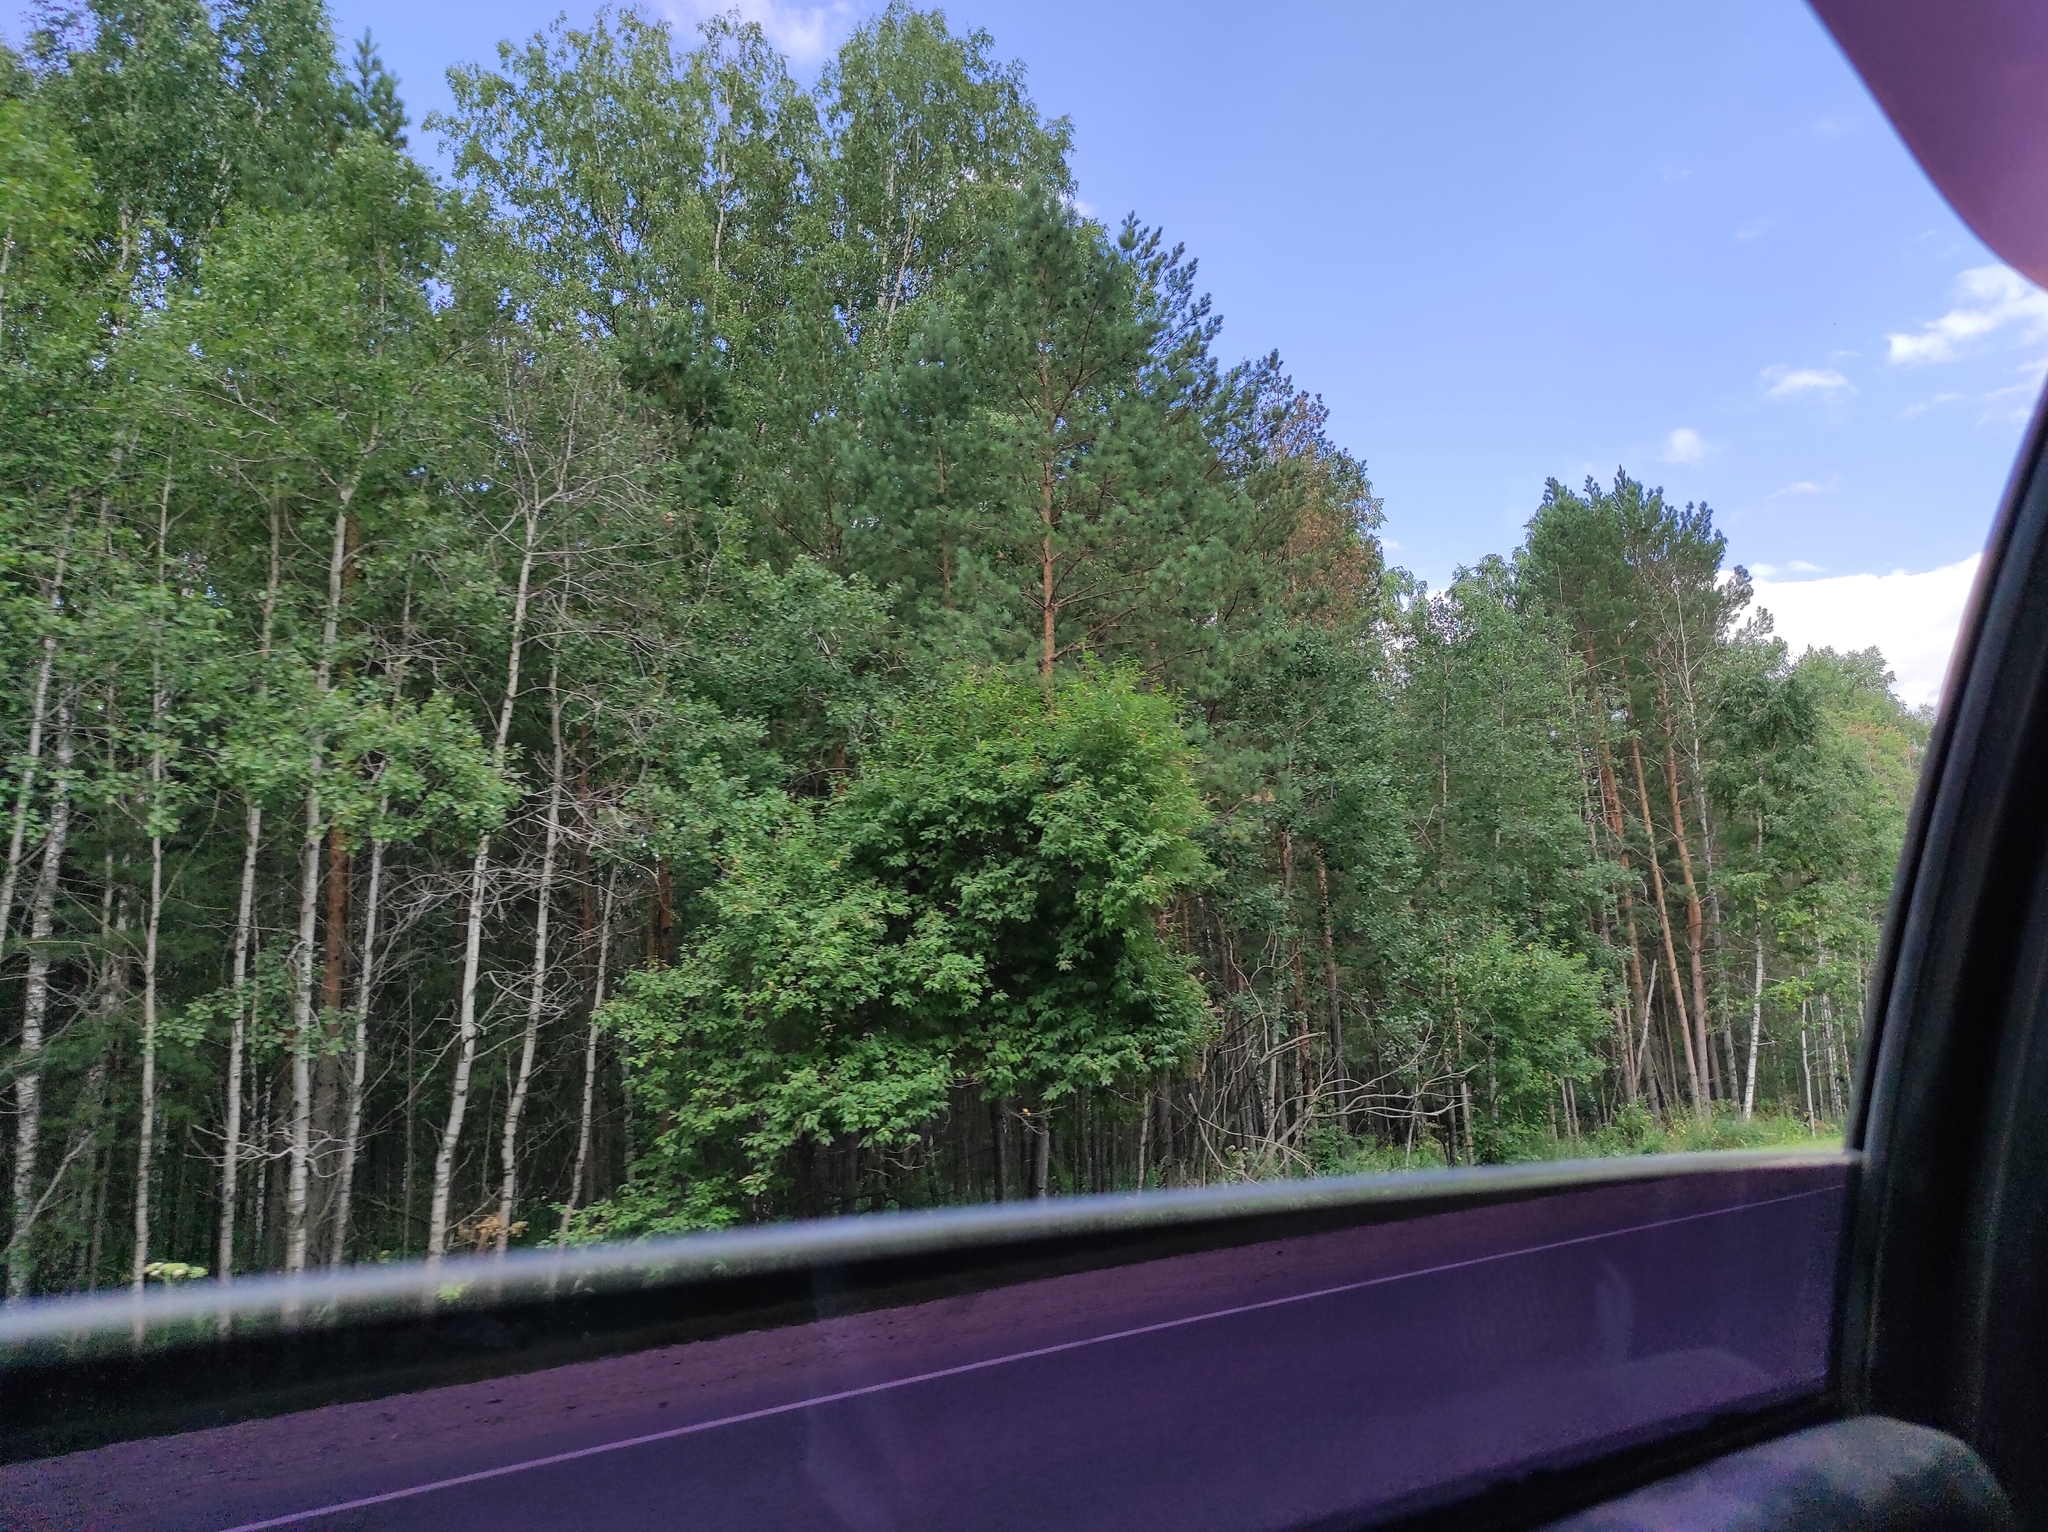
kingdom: Plantae
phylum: Tracheophyta
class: Magnoliopsida
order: Malpighiales
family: Salicaceae
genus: Populus
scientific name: Populus tremula
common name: European aspen
